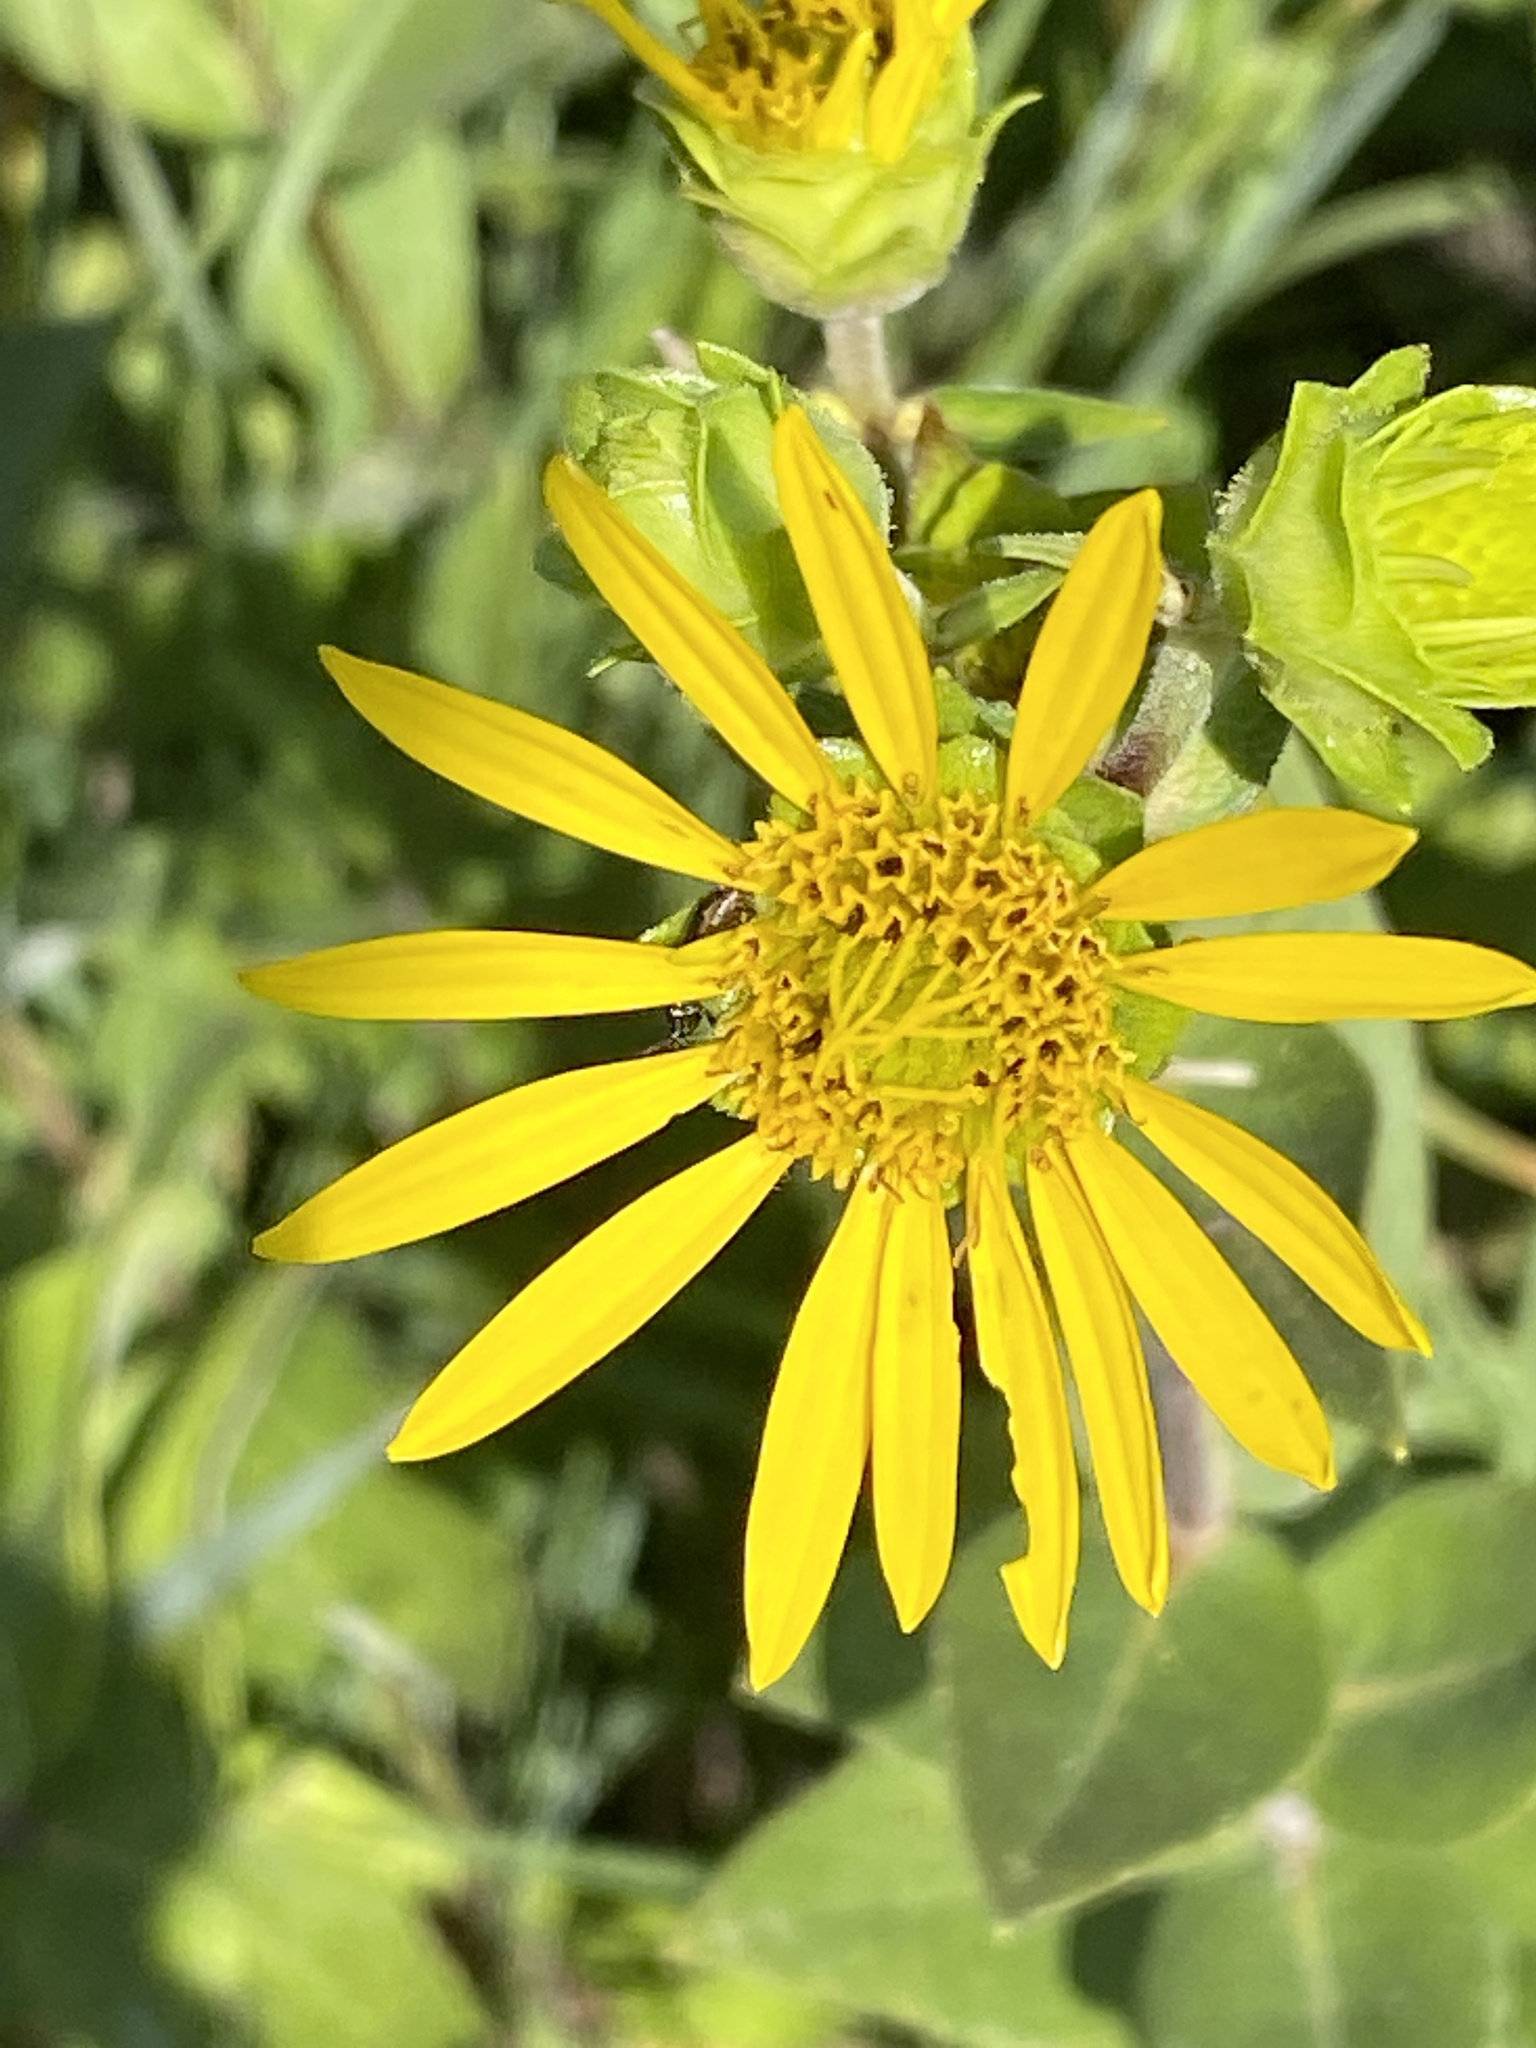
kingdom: Plantae
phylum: Tracheophyta
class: Magnoliopsida
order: Asterales
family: Asteraceae
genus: Silphium
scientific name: Silphium integrifolium
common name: Whole-leaf rosinweed
